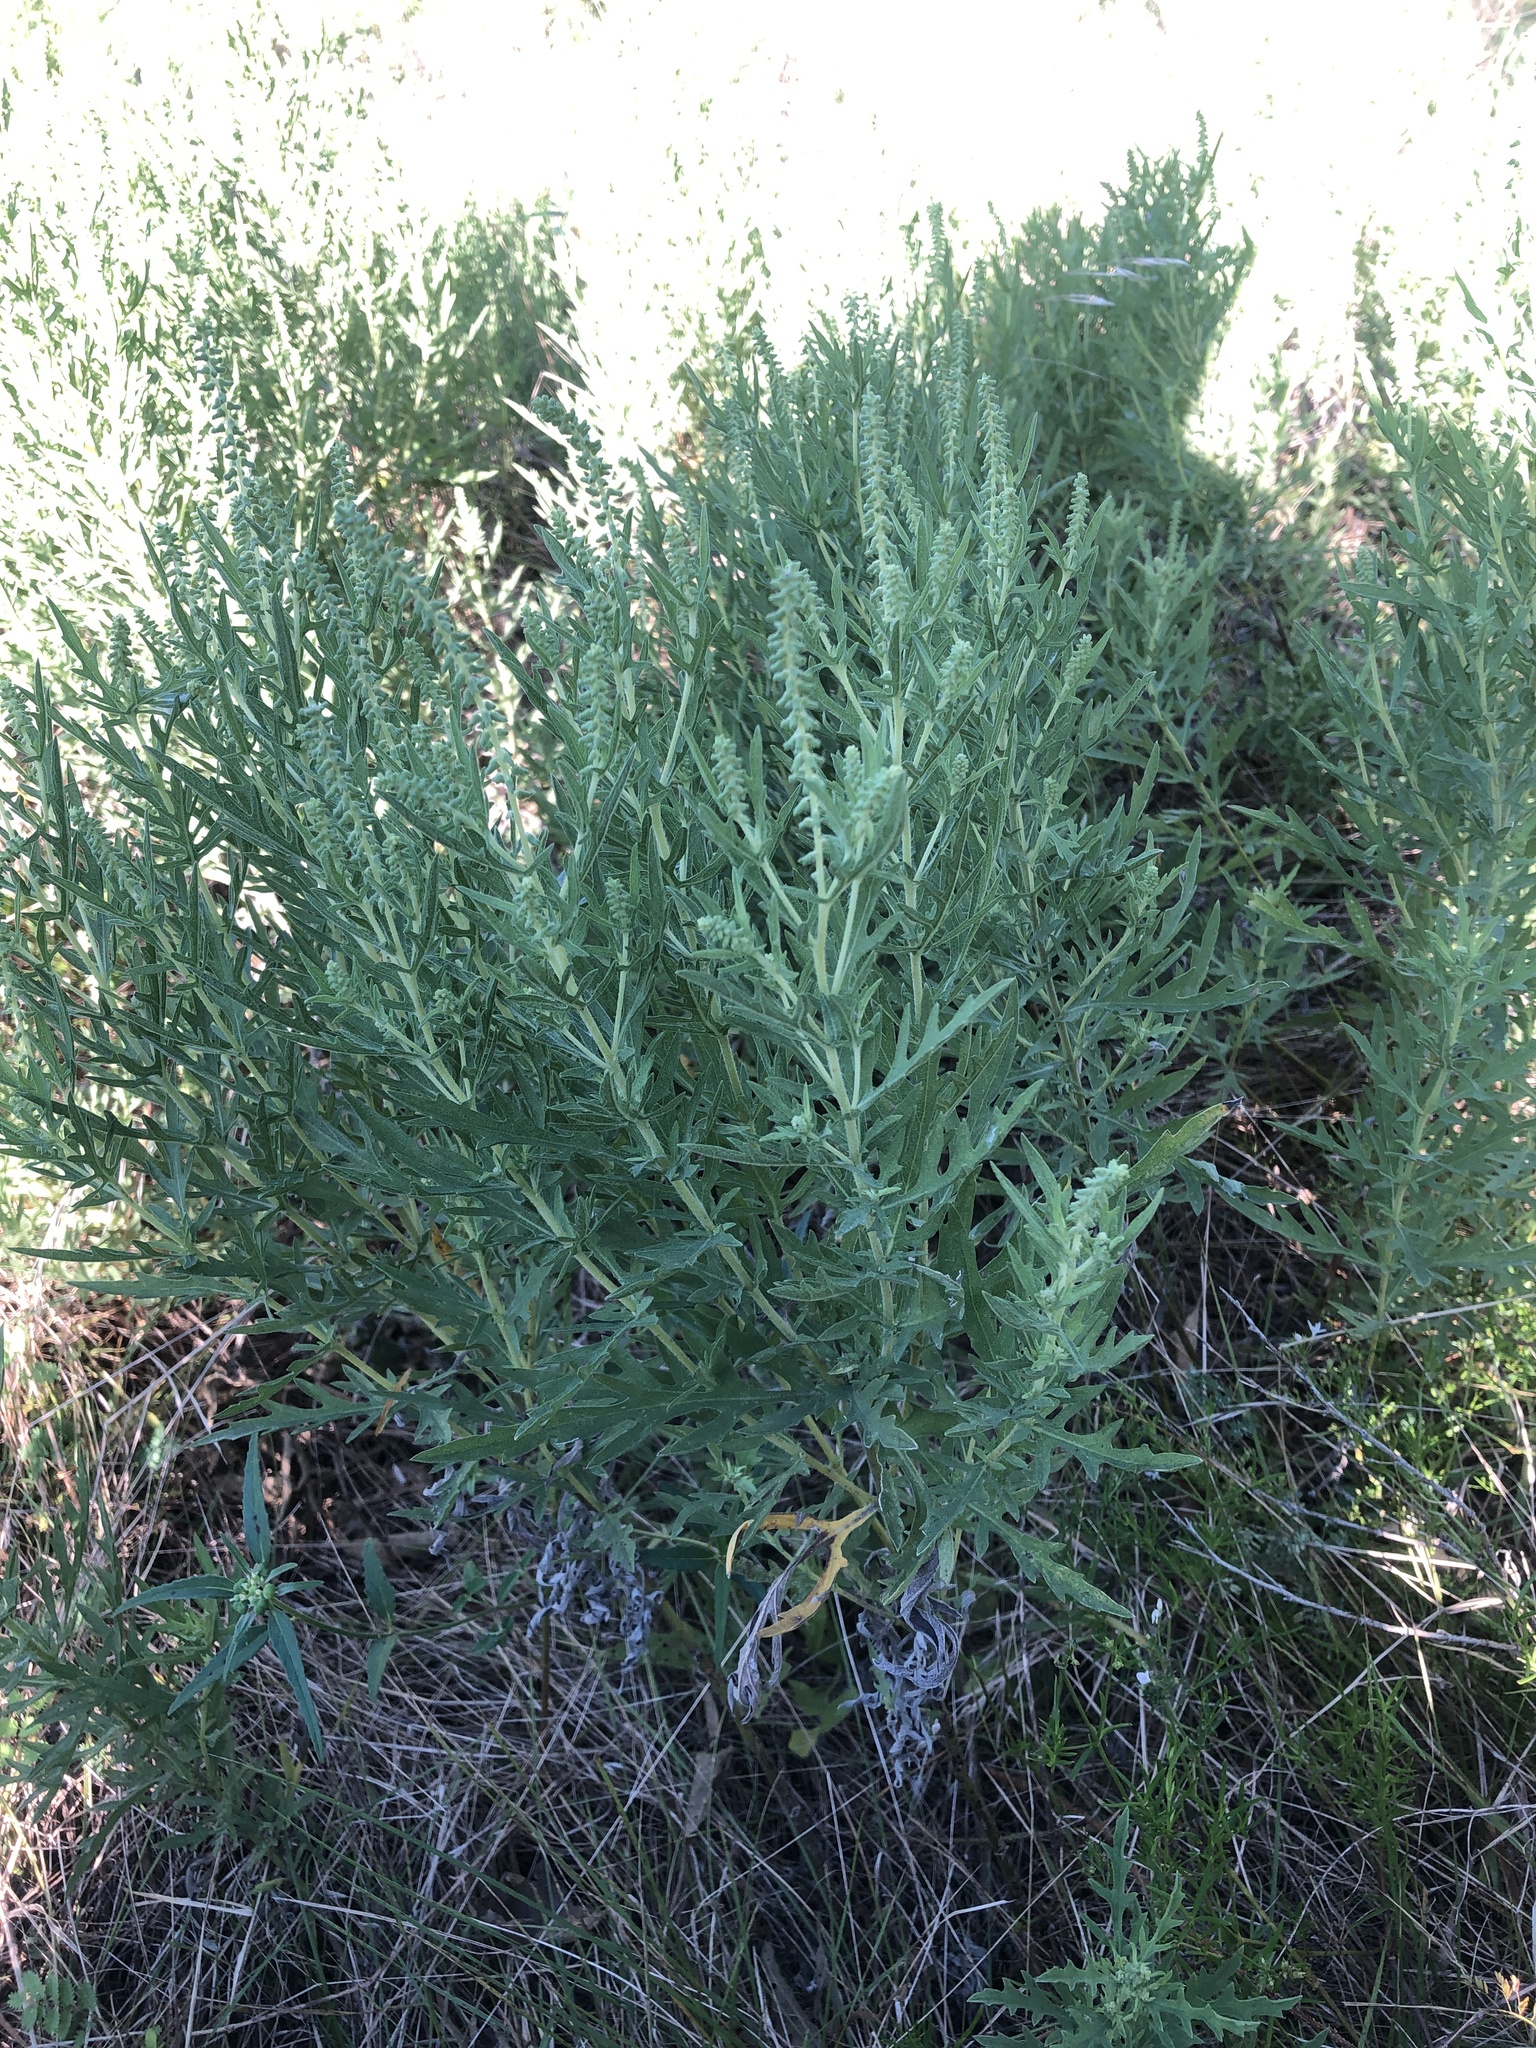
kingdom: Plantae
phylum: Tracheophyta
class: Magnoliopsida
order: Asterales
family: Asteraceae
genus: Ambrosia
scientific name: Ambrosia psilostachya
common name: Perennial ragweed
